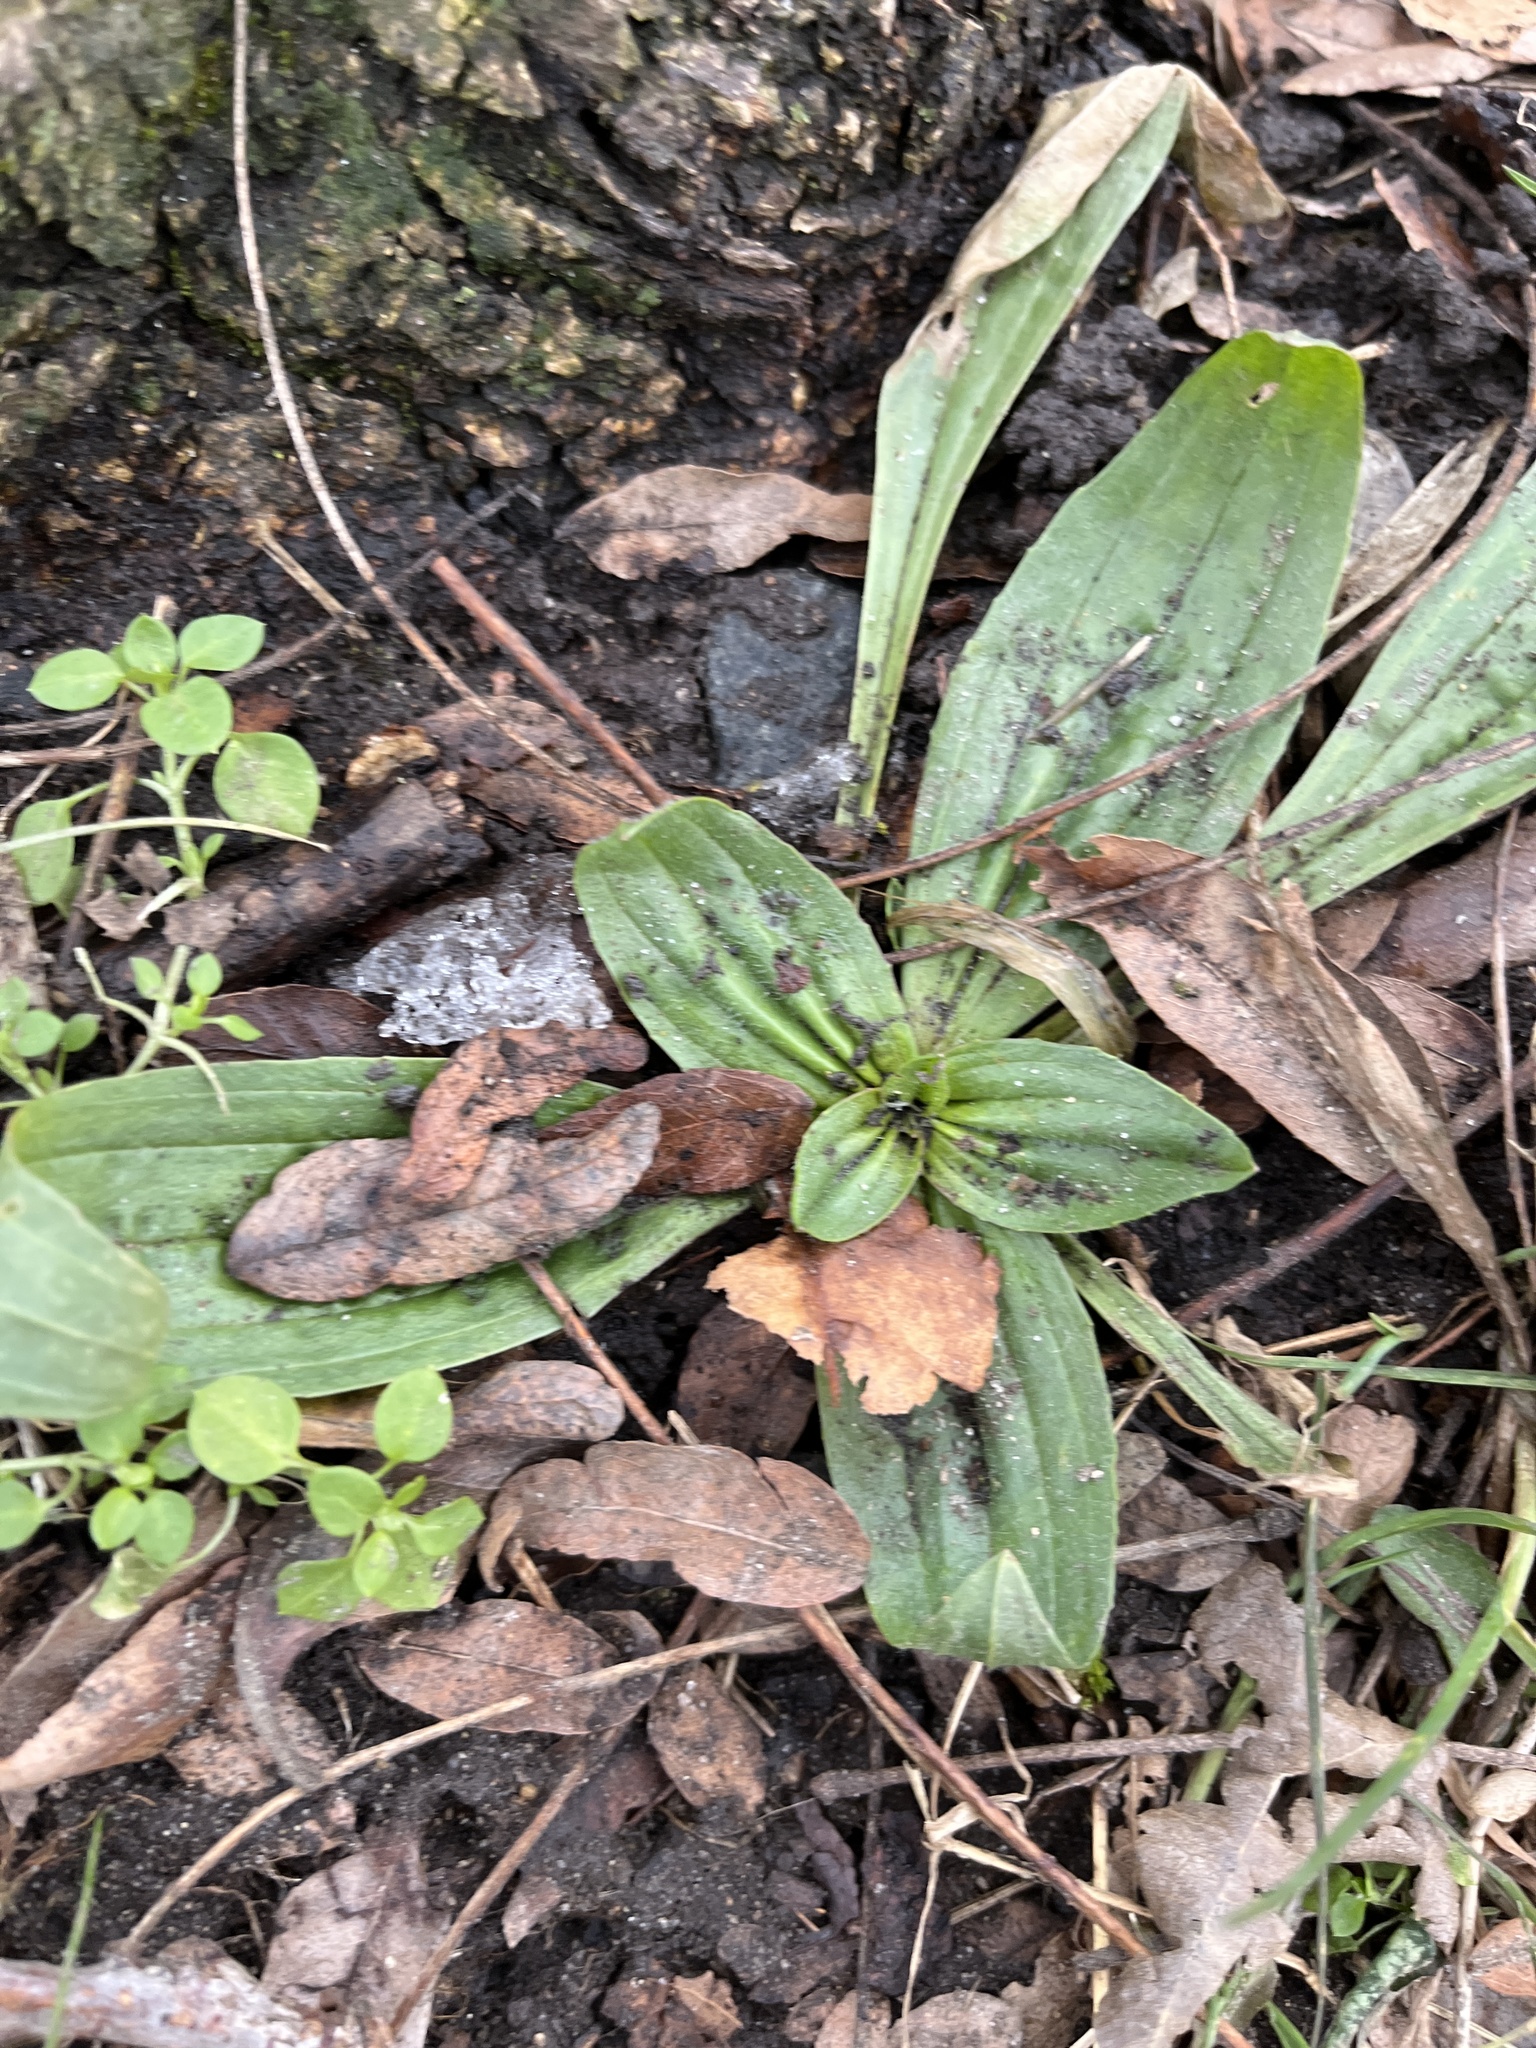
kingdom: Plantae
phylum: Tracheophyta
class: Magnoliopsida
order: Lamiales
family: Plantaginaceae
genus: Plantago
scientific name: Plantago lanceolata
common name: Ribwort plantain
